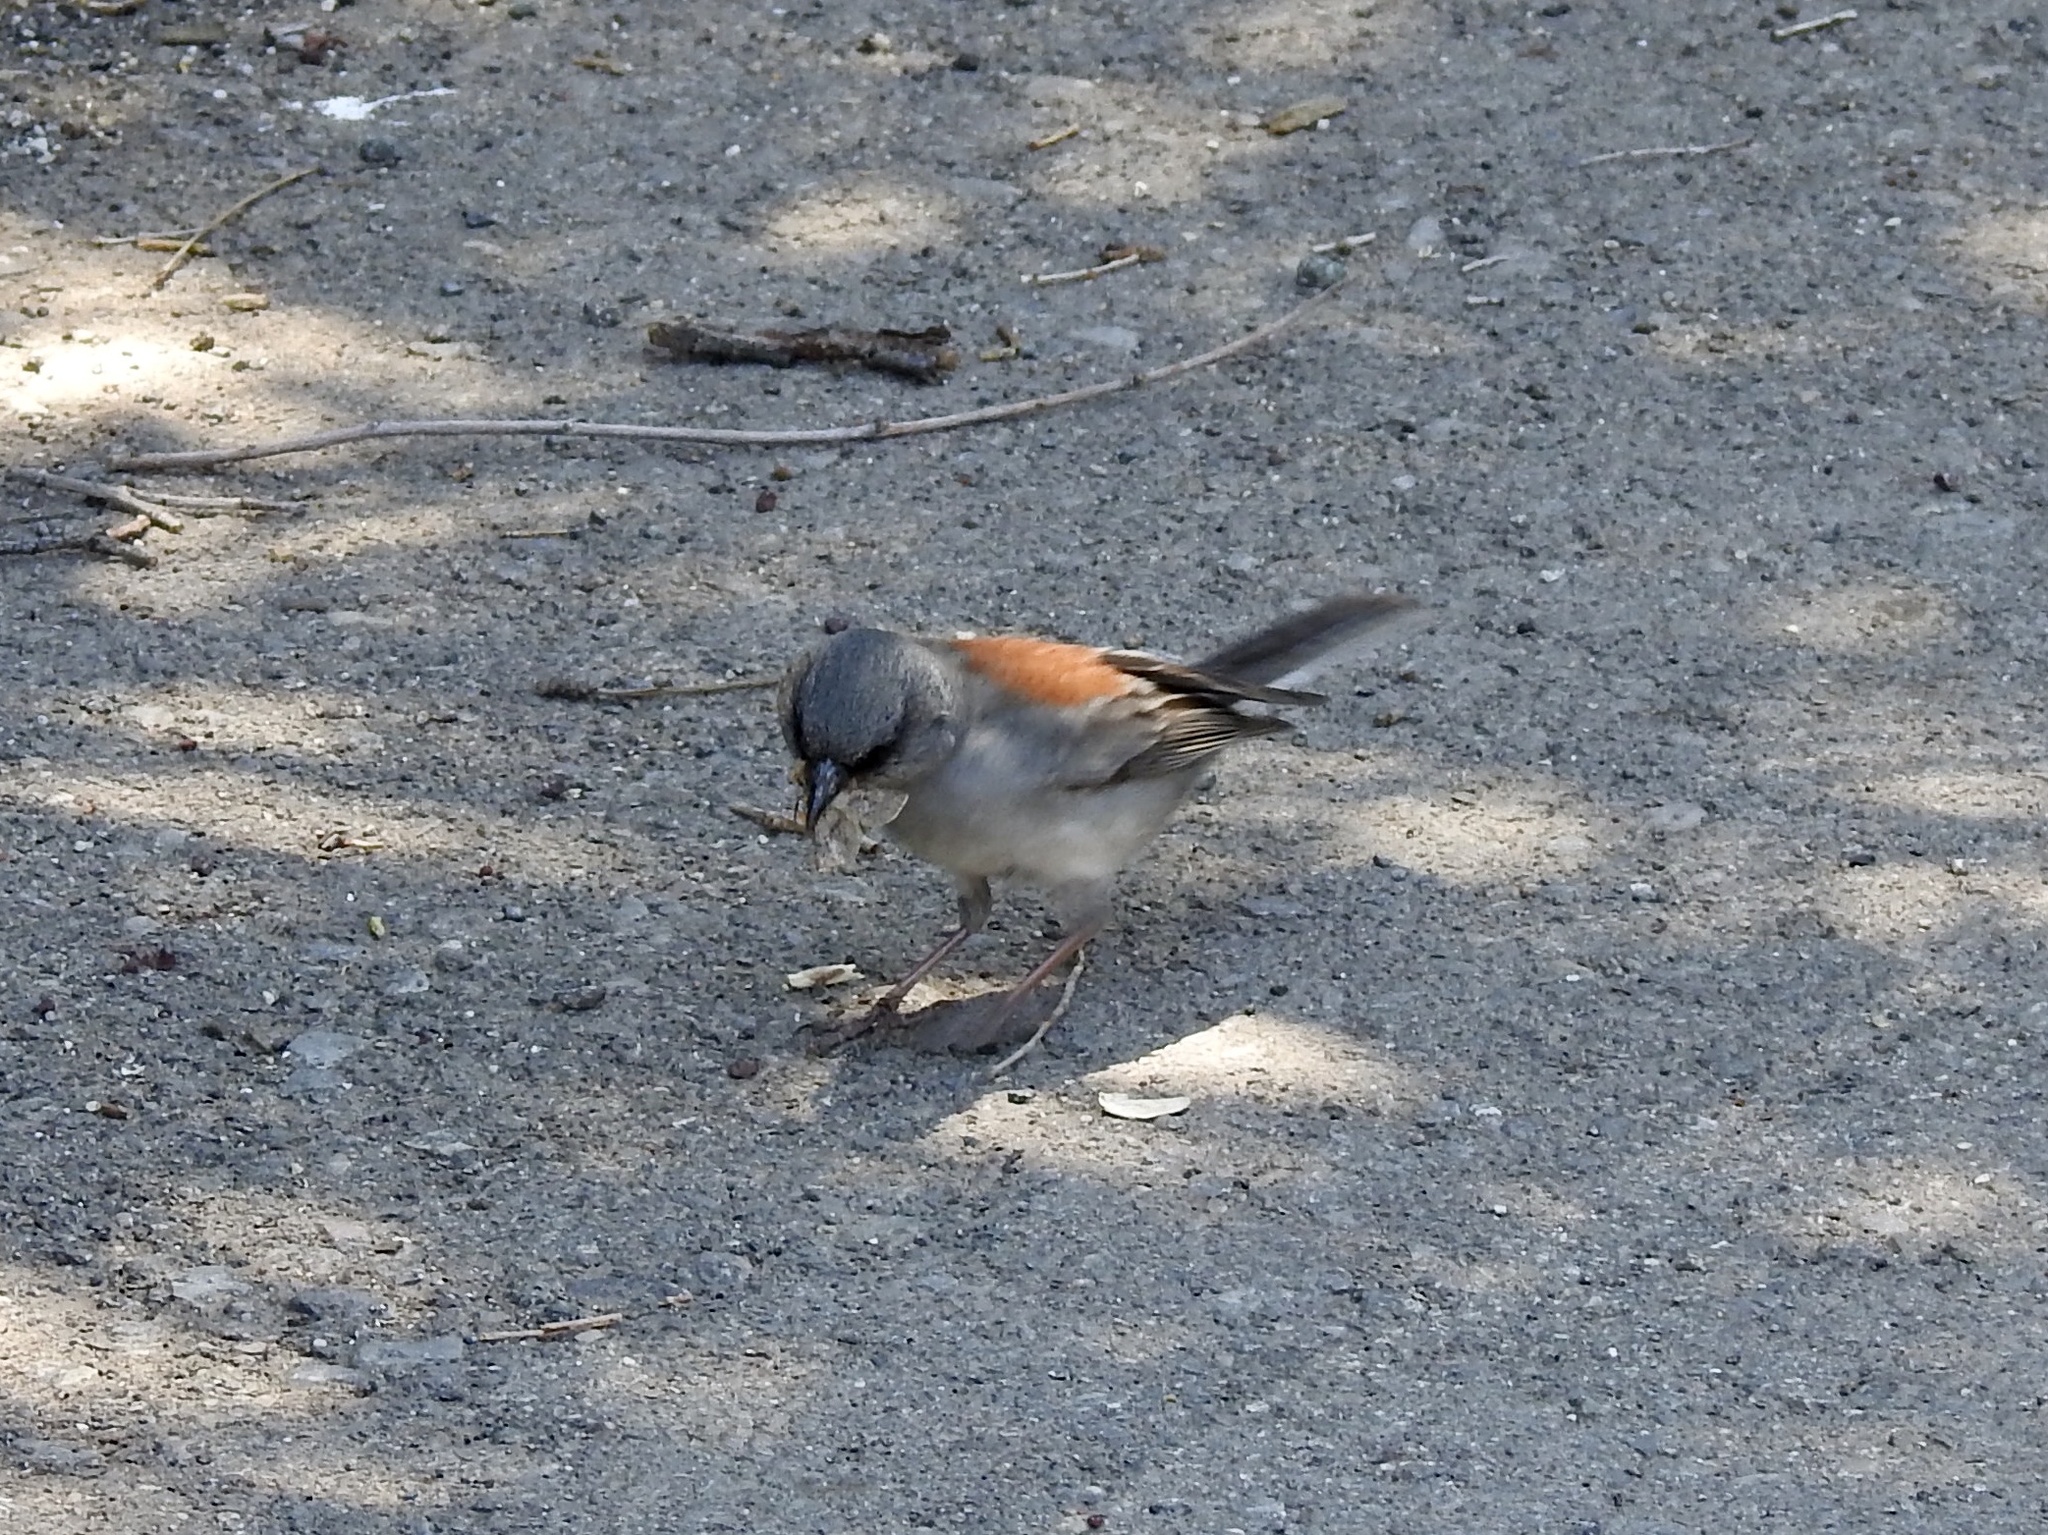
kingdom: Animalia
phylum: Chordata
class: Aves
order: Passeriformes
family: Passerellidae
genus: Junco
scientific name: Junco hyemalis
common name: Dark-eyed junco
